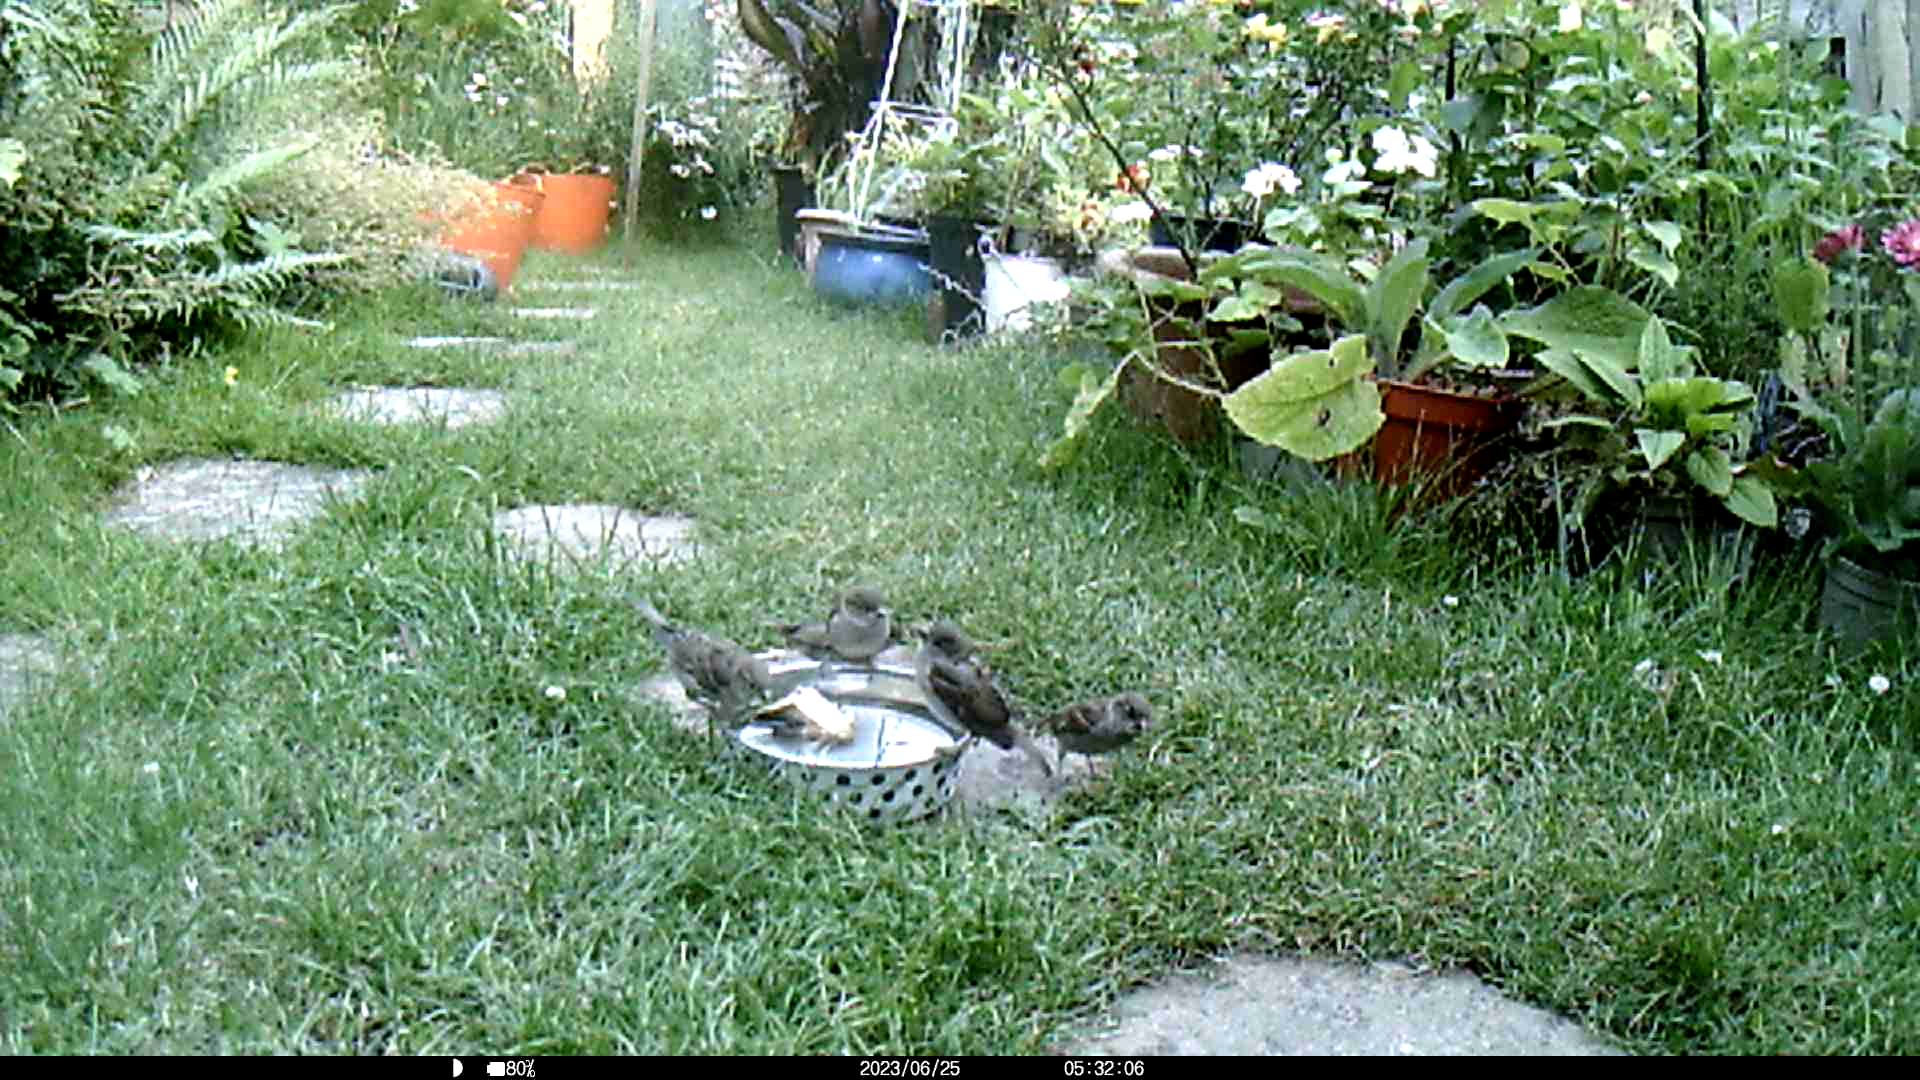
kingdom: Animalia
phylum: Chordata
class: Aves
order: Passeriformes
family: Passeridae
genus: Passer
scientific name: Passer domesticus
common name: House sparrow
